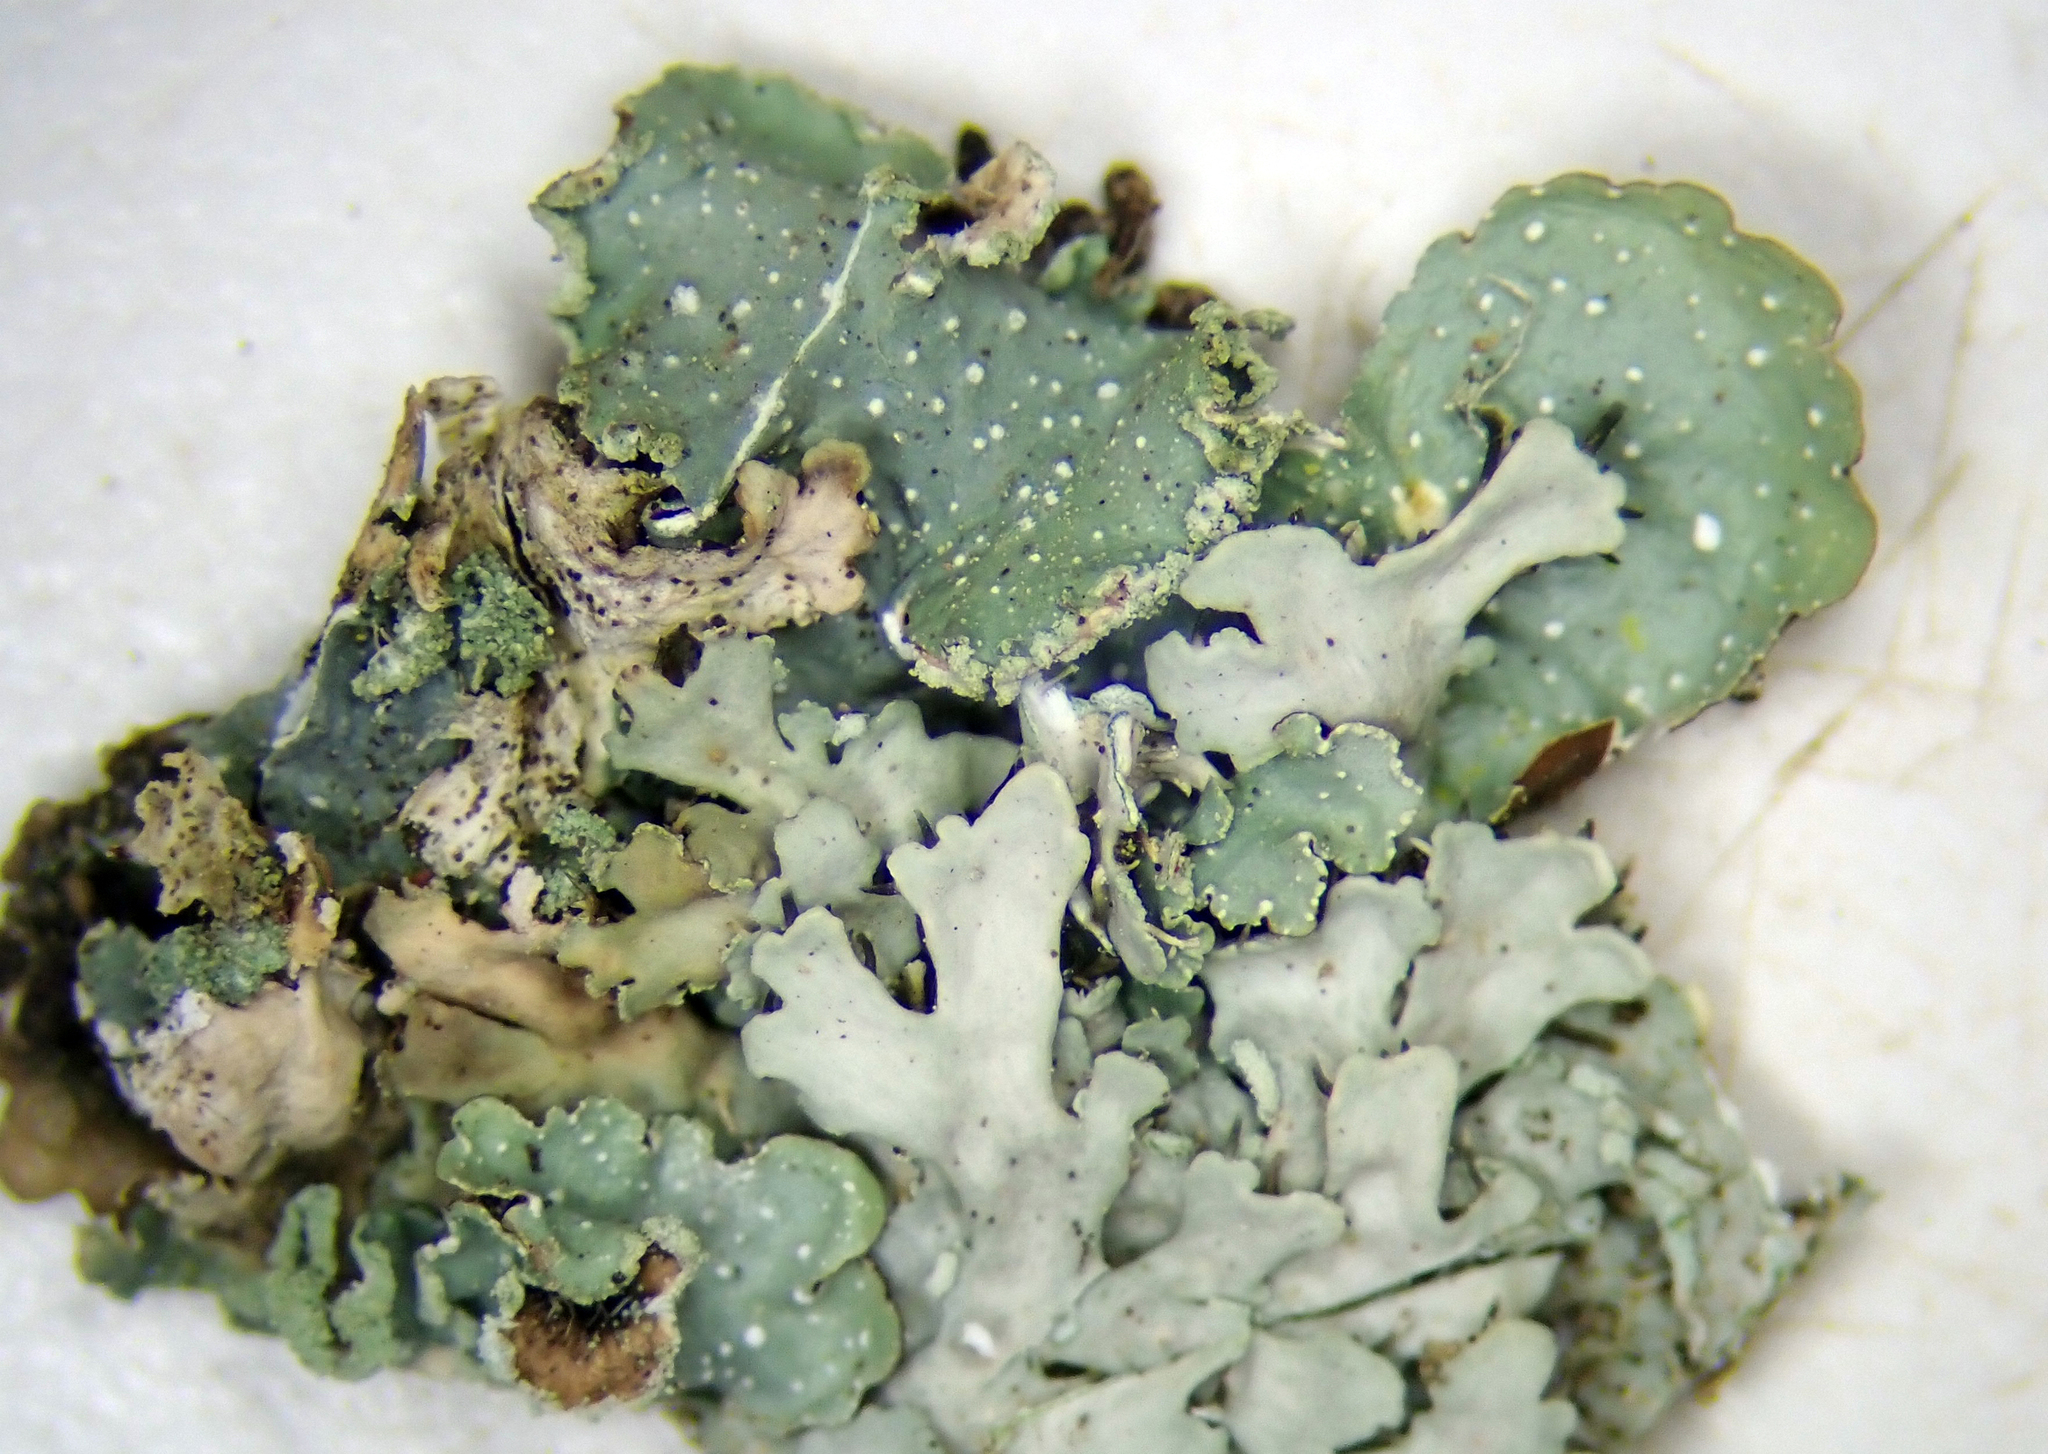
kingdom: Fungi
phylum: Ascomycota
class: Lecanoromycetes
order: Lecanorales
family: Parmeliaceae
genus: Punctelia
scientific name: Punctelia borreri
